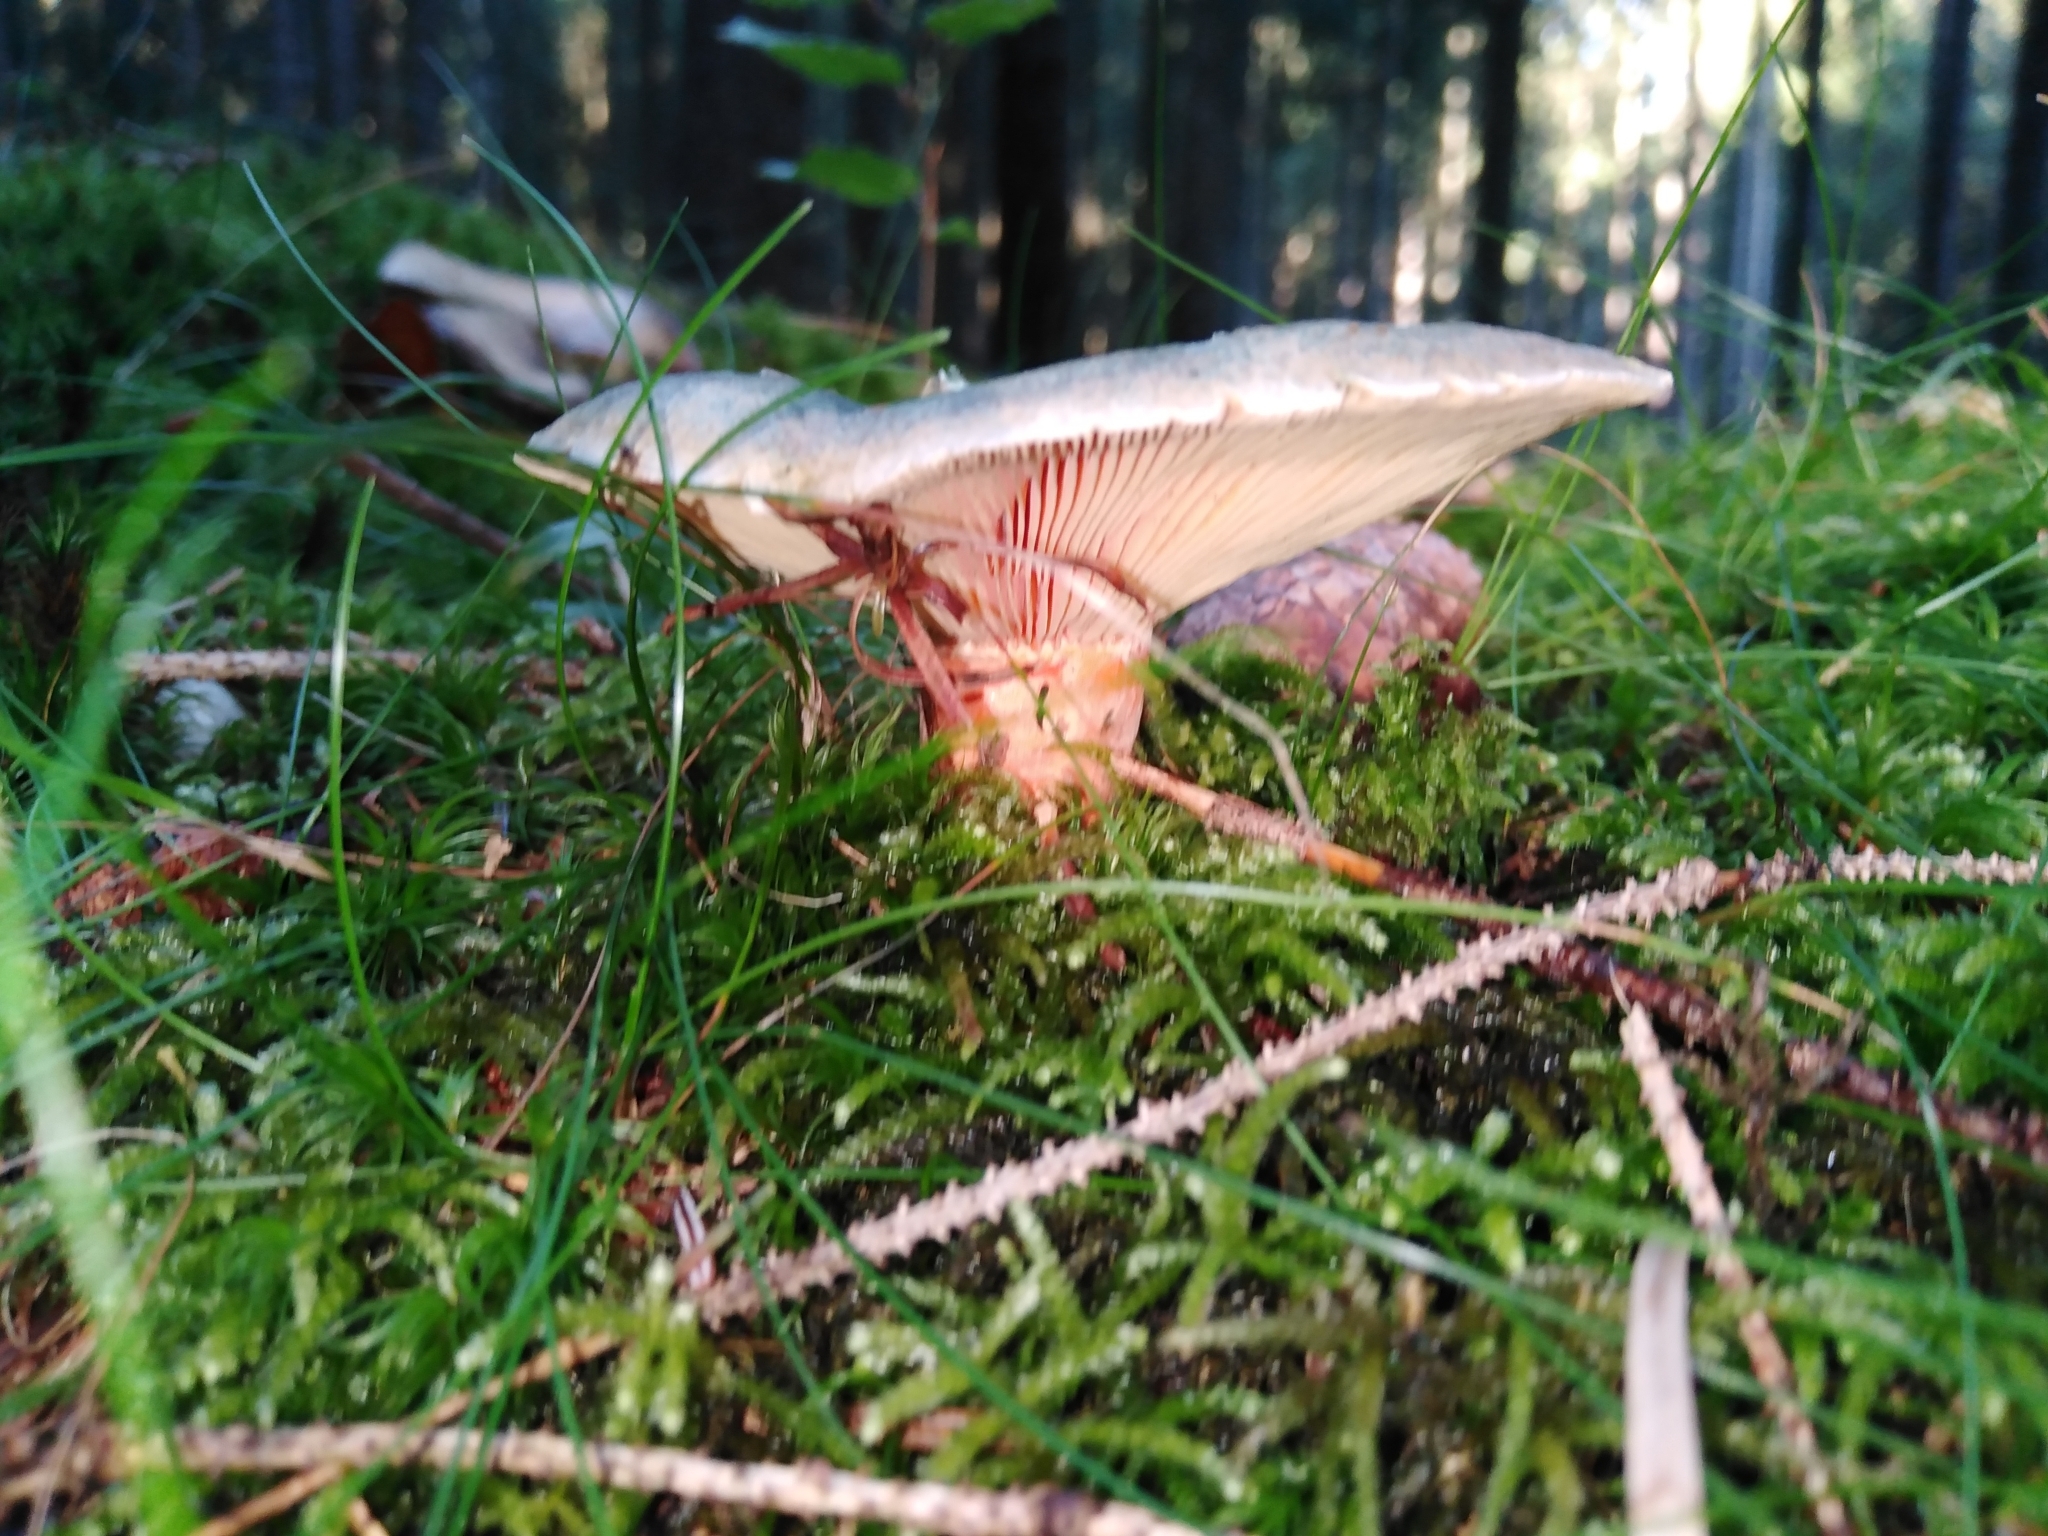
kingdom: Fungi
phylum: Basidiomycota
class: Agaricomycetes
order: Russulales
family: Russulaceae
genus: Lactarius
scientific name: Lactarius deterrimus
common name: False saffron milkcap
